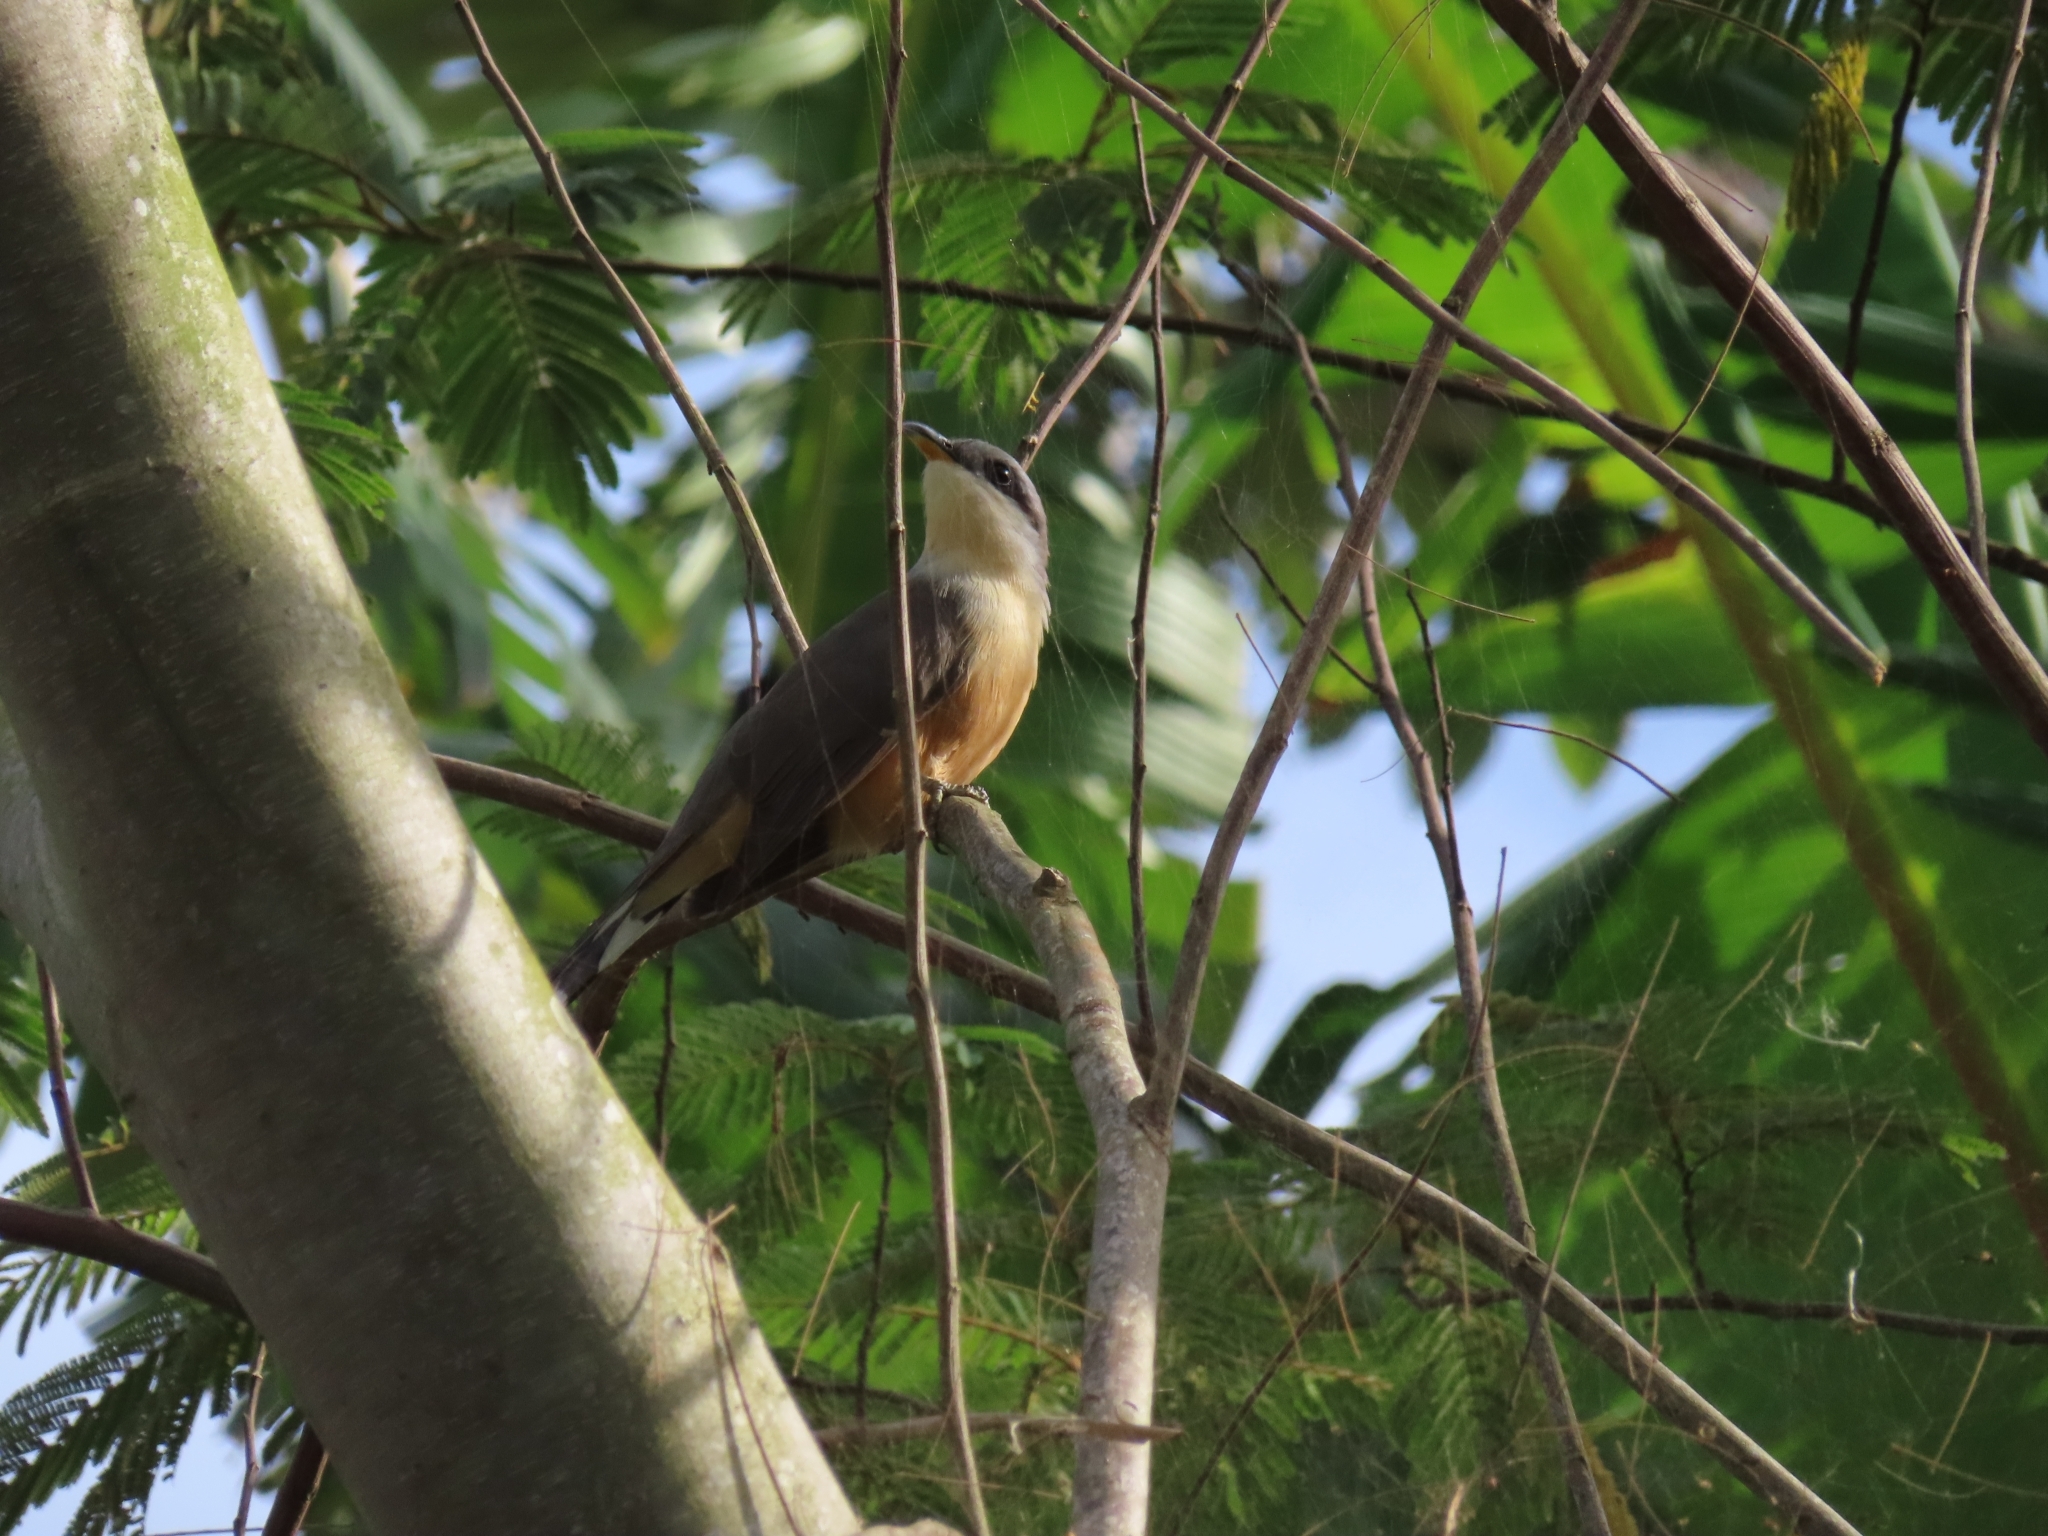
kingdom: Animalia
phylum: Chordata
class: Aves
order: Cuculiformes
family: Cuculidae
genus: Coccyzus
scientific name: Coccyzus minor
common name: Mangrove cuckoo
